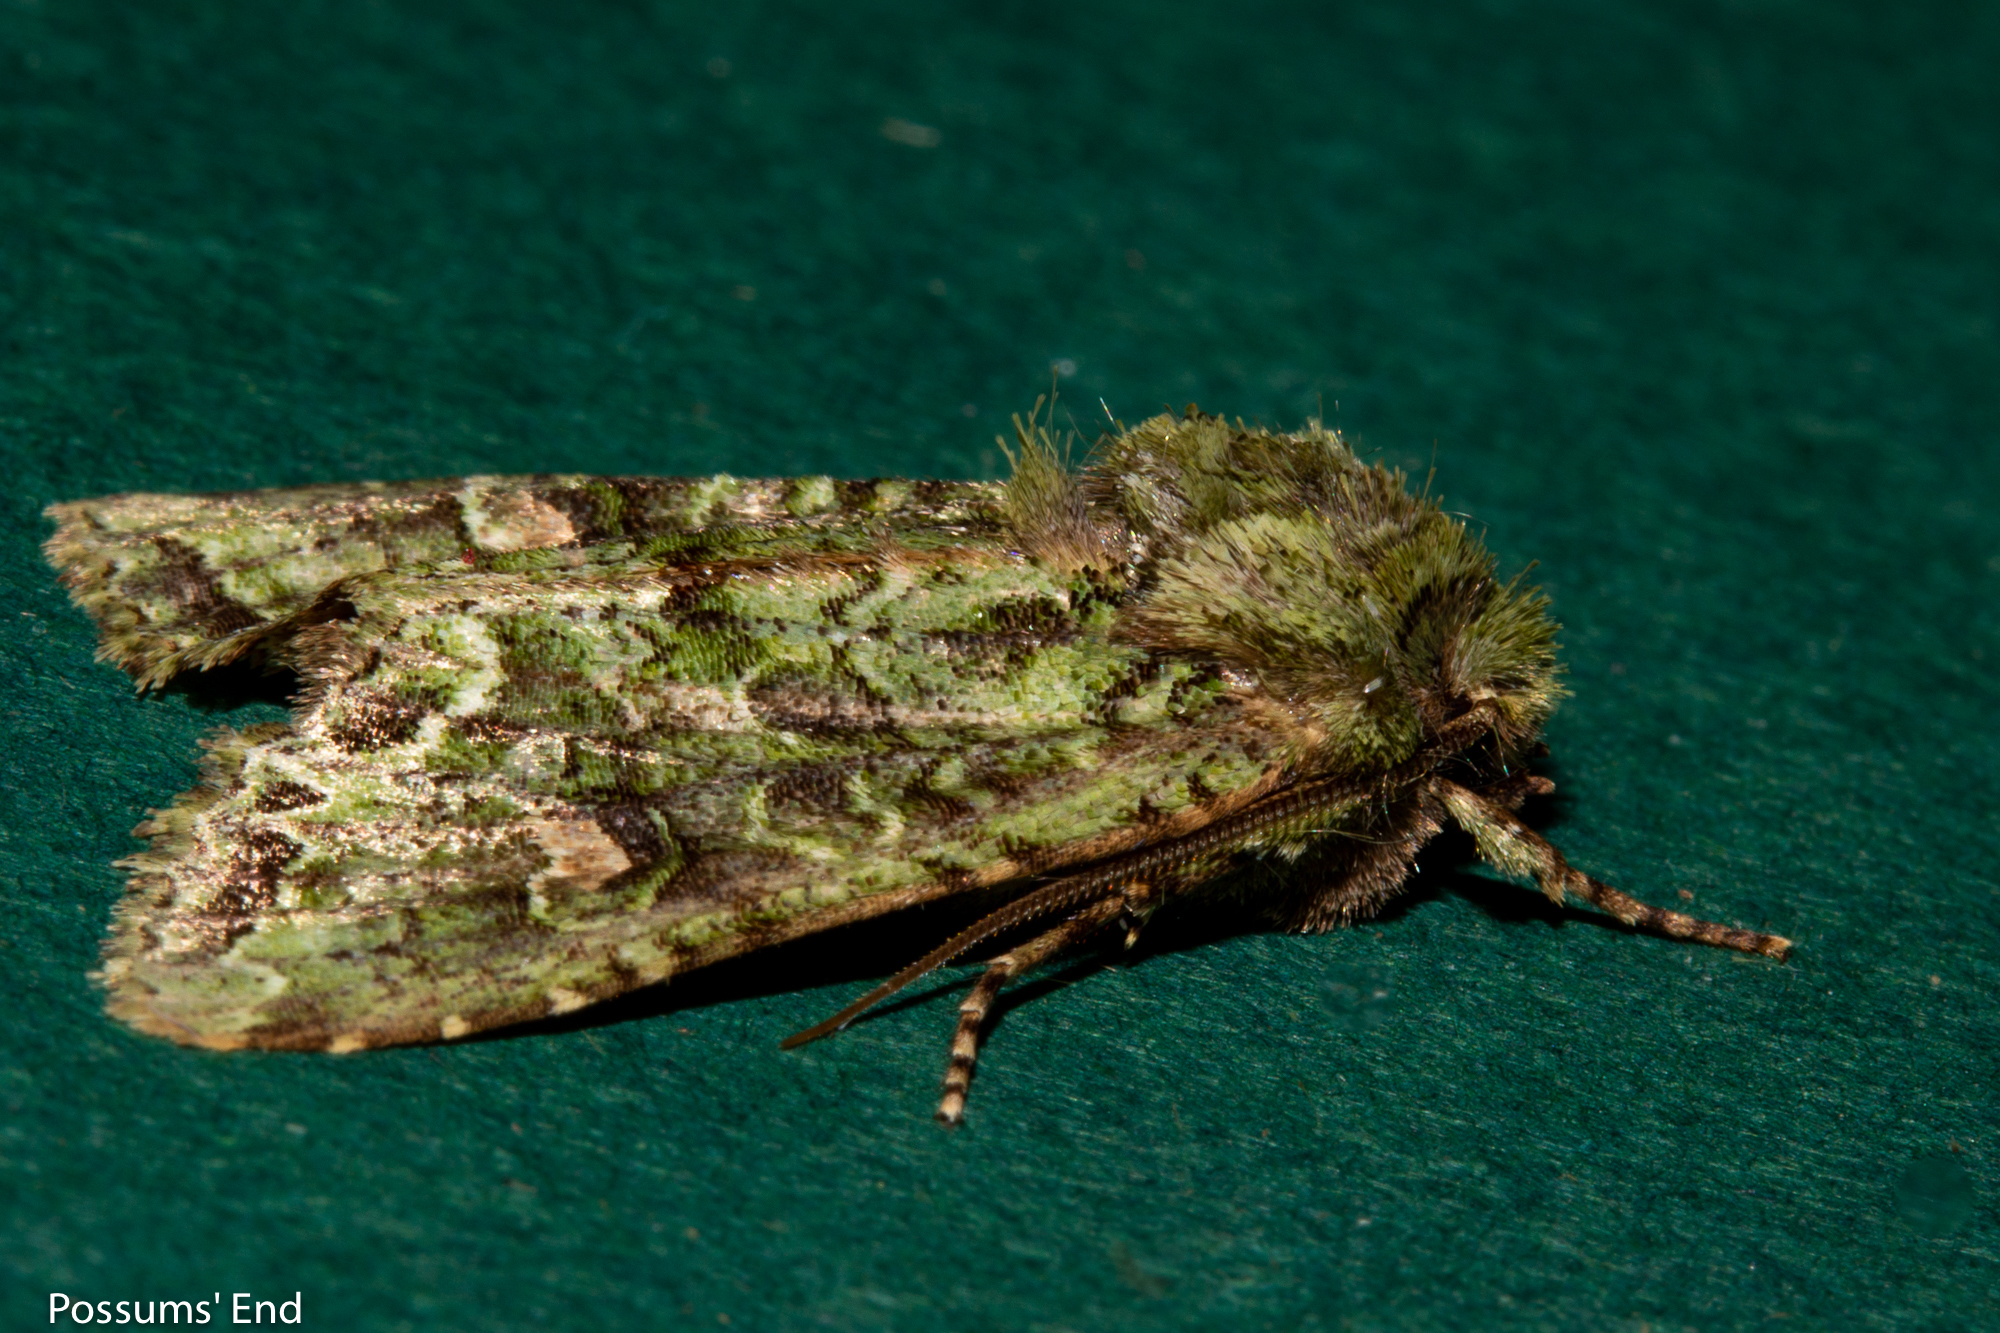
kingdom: Animalia
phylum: Arthropoda
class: Insecta
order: Lepidoptera
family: Noctuidae
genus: Ichneutica
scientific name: Ichneutica
